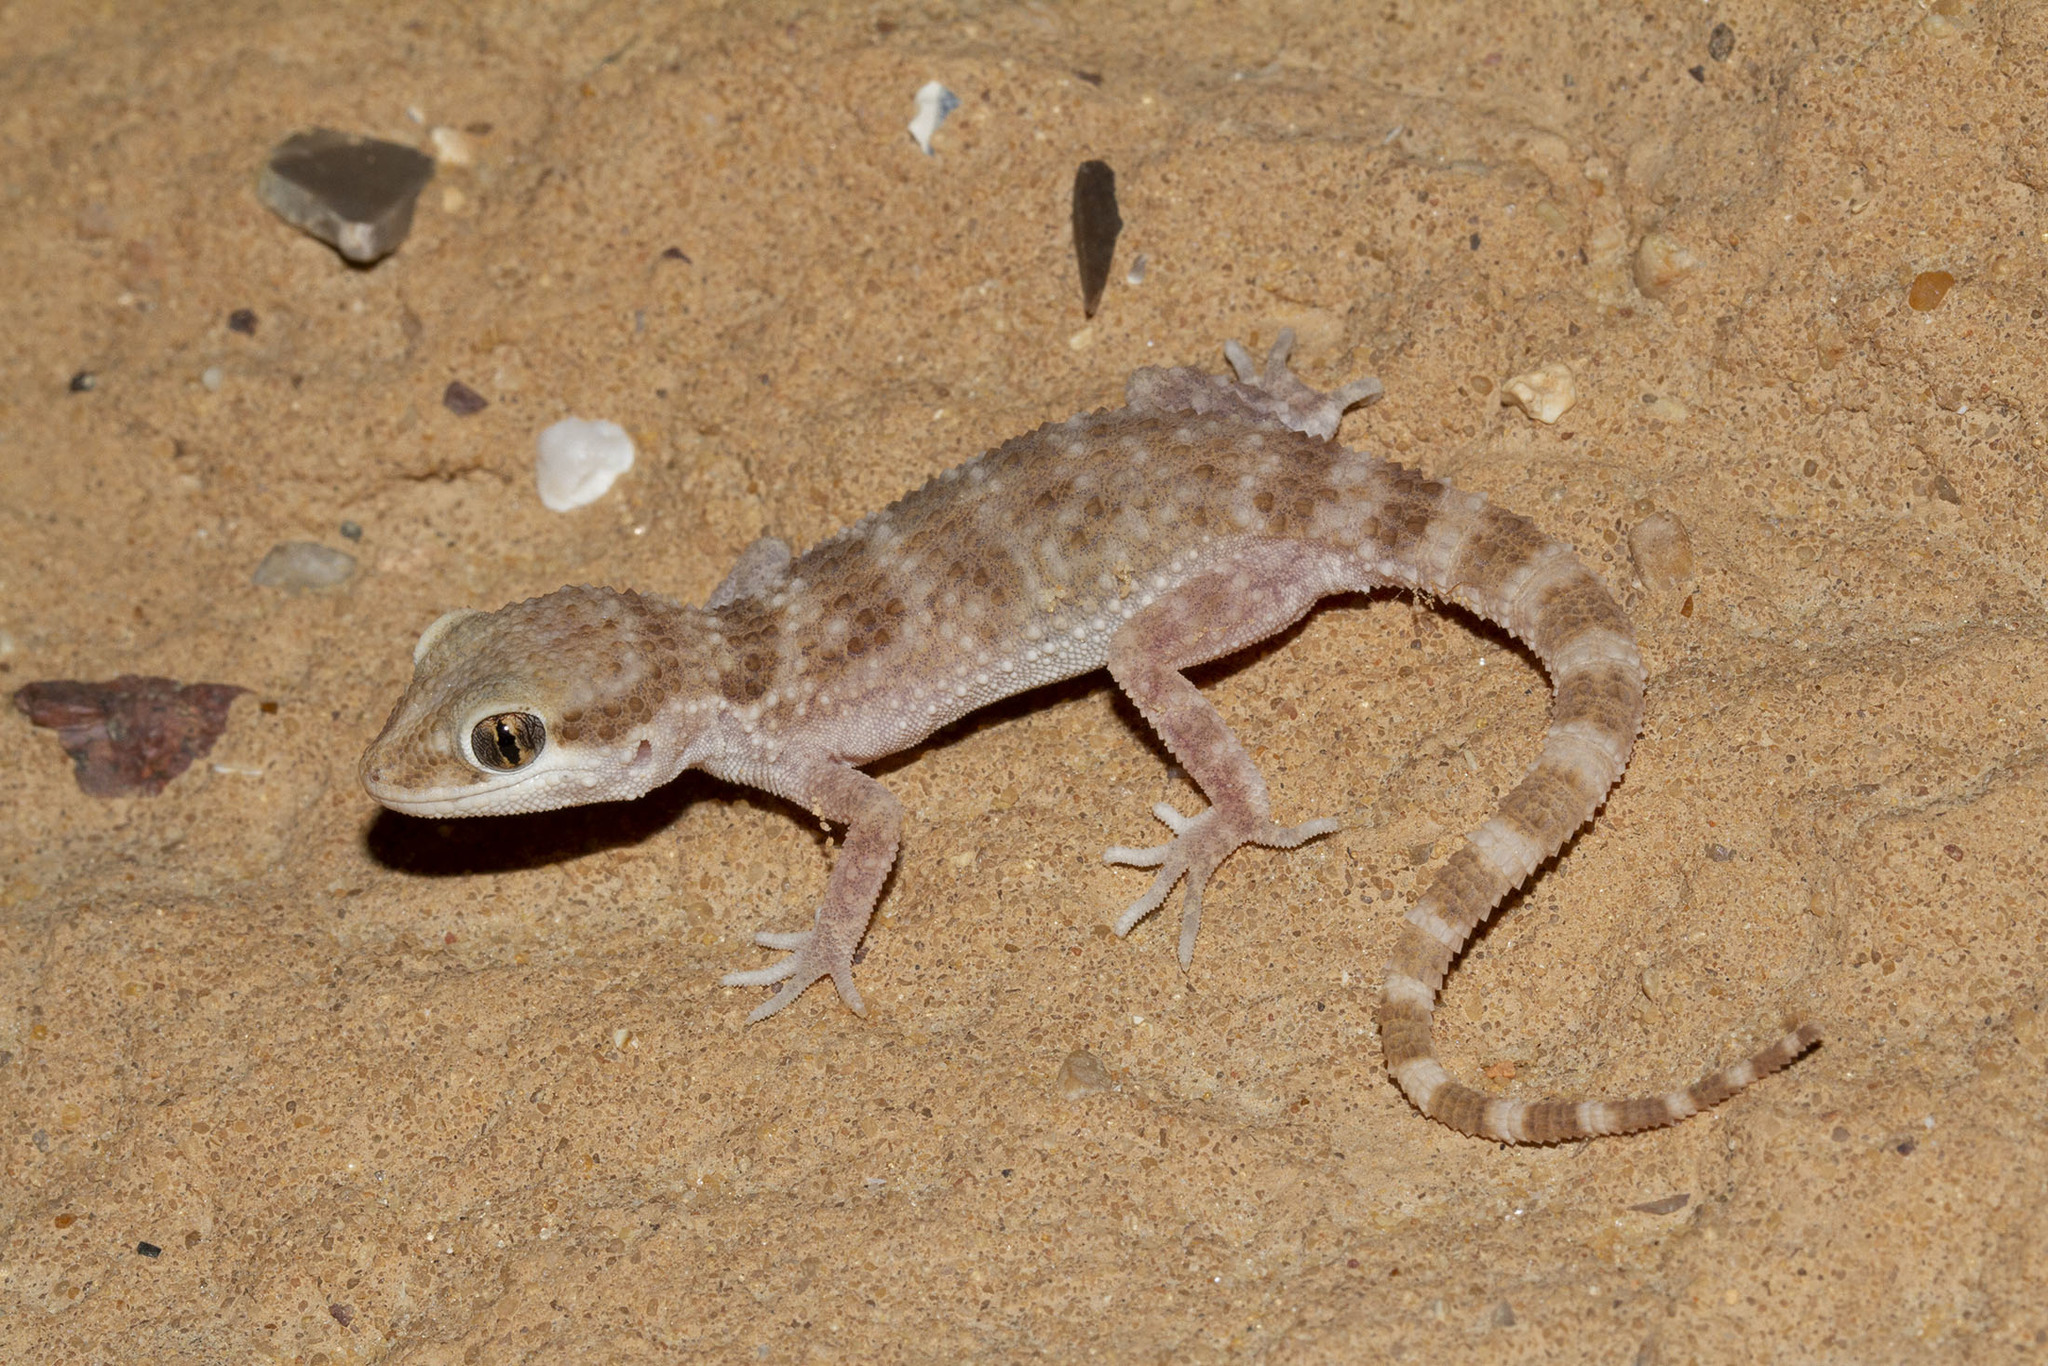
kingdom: Animalia
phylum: Chordata
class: Squamata
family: Gekkonidae
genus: Bunopus
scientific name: Bunopus blanfordii
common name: Blanford’s rock gecko
